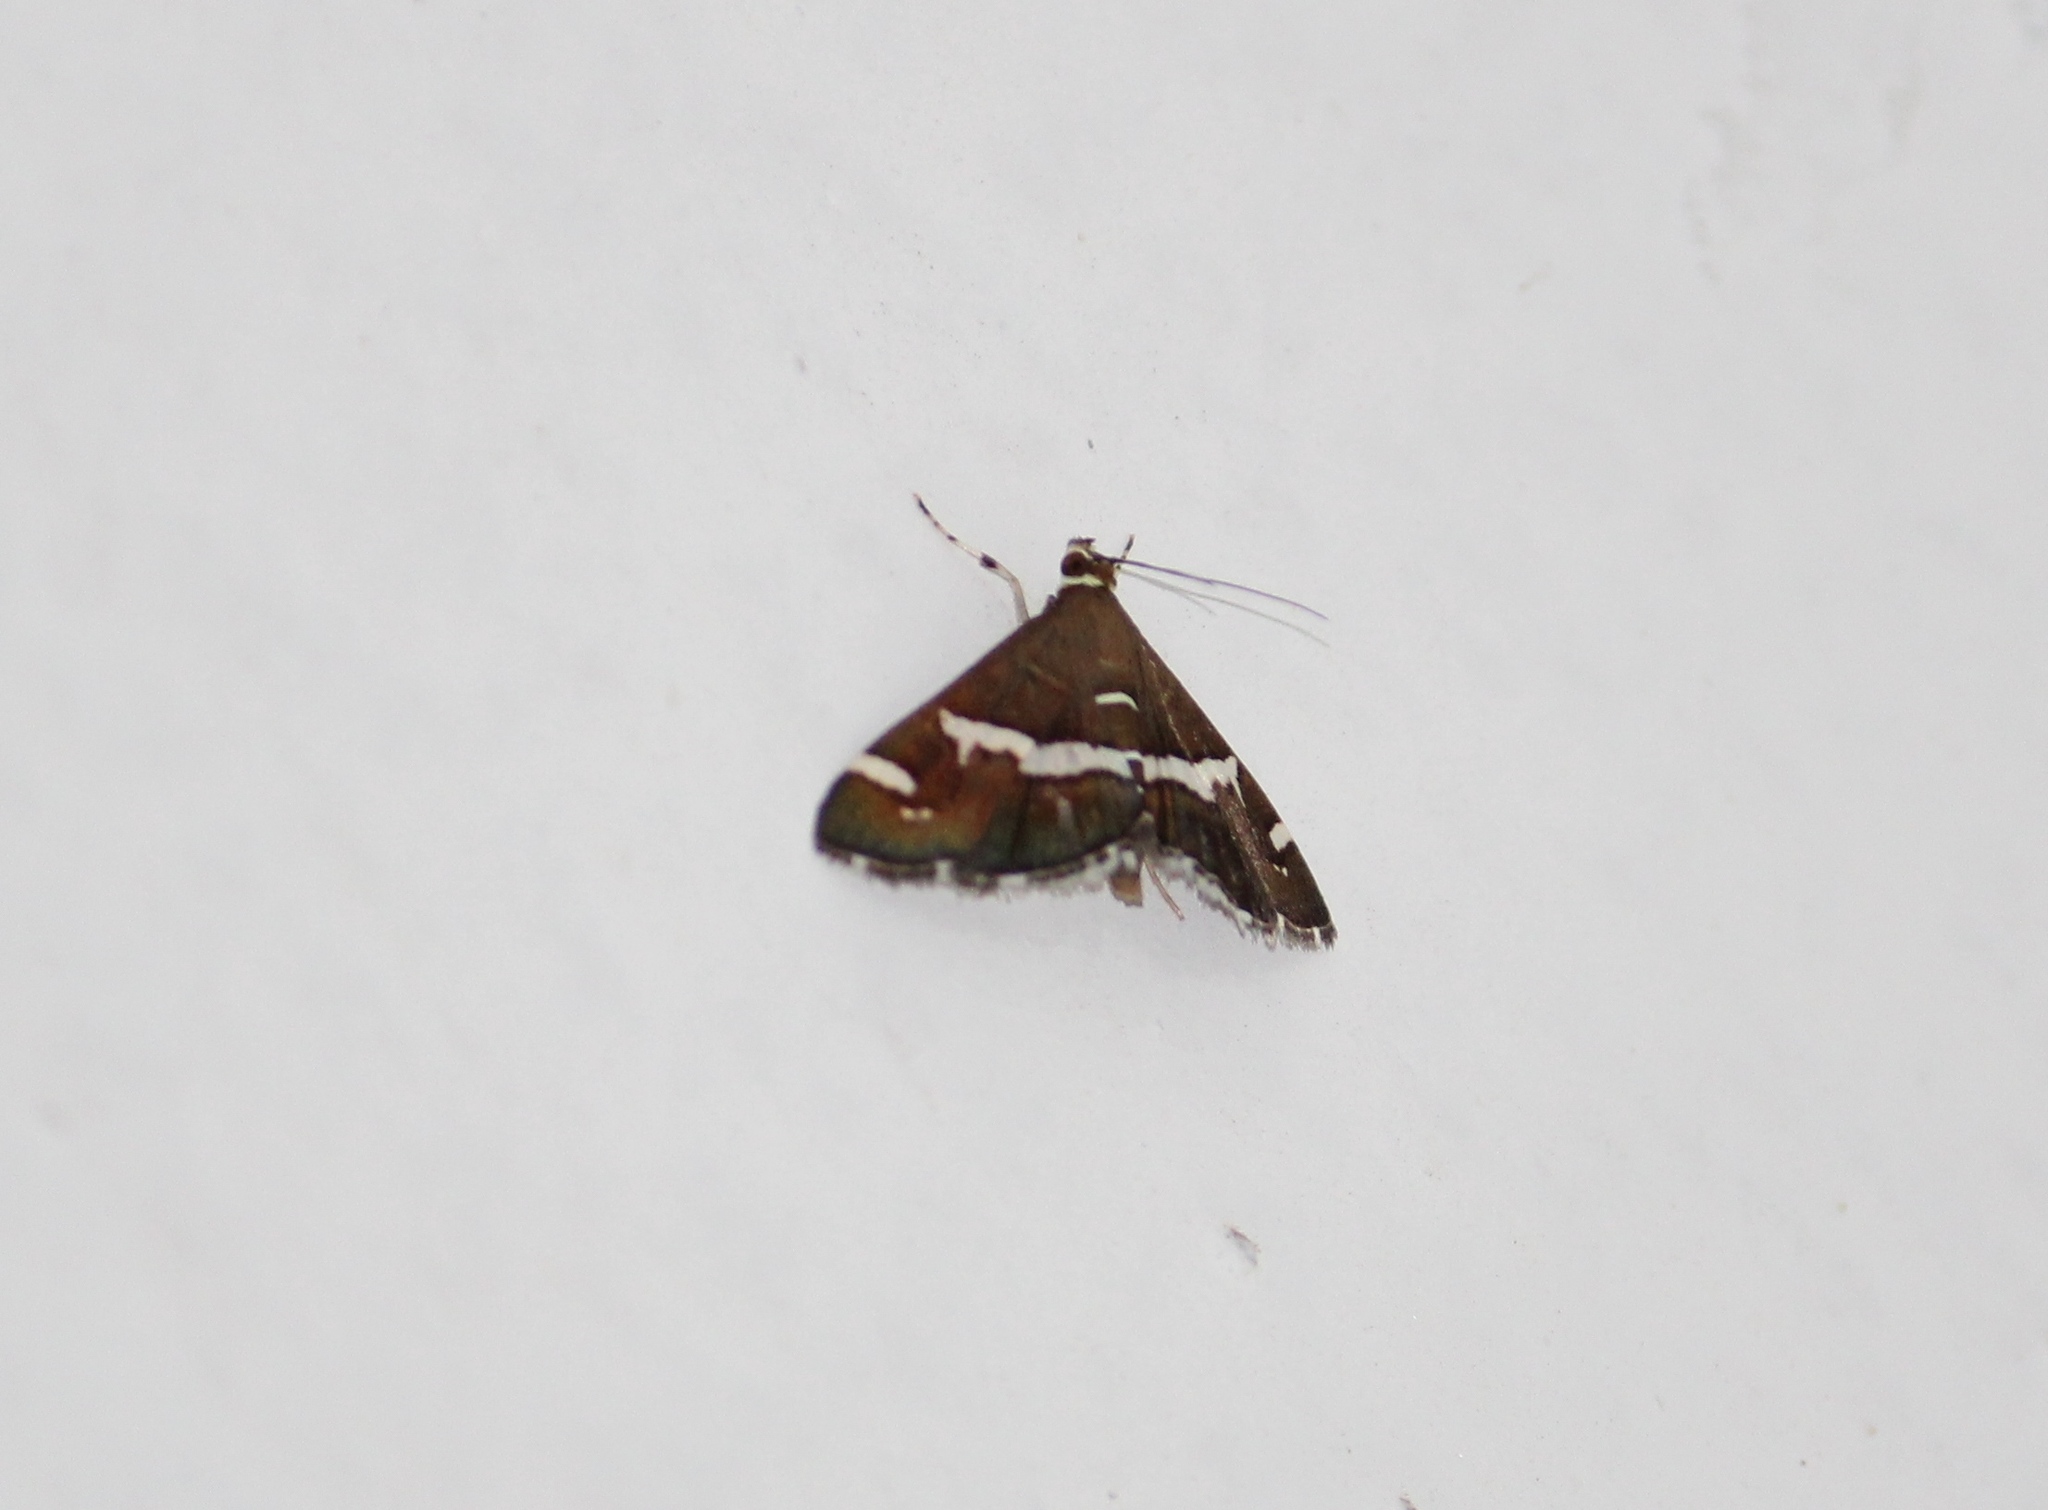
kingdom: Animalia
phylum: Arthropoda
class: Insecta
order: Lepidoptera
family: Crambidae
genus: Spoladea
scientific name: Spoladea recurvalis
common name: Beet webworm moth
